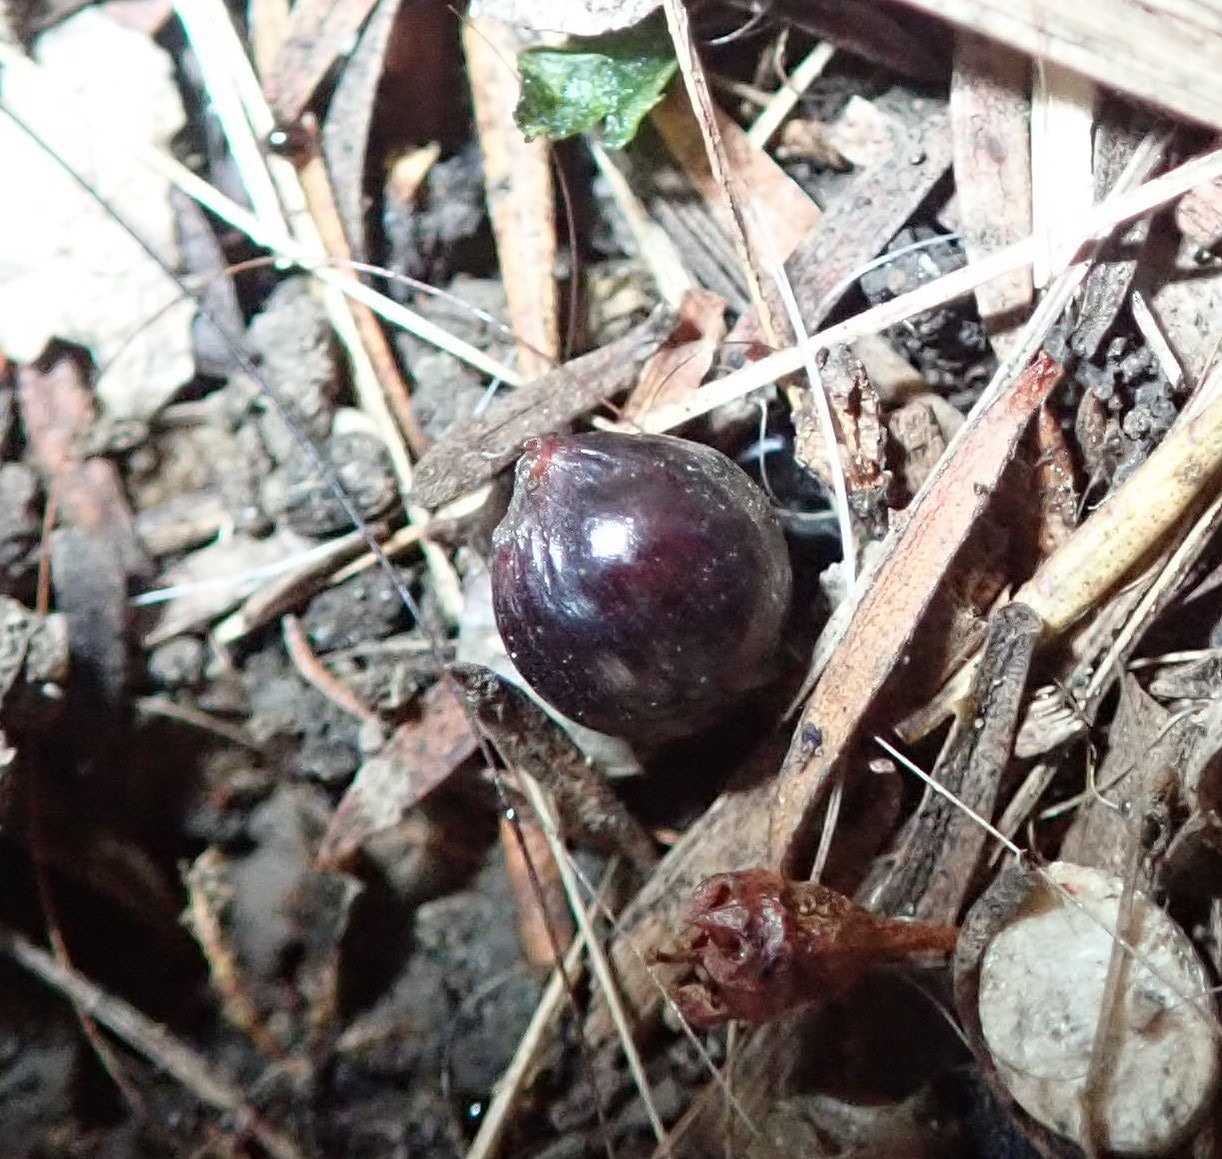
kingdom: Plantae
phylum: Tracheophyta
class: Pinopsida
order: Pinales
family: Podocarpaceae
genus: Dacrycarpus
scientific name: Dacrycarpus dacrydioides
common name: White pine
